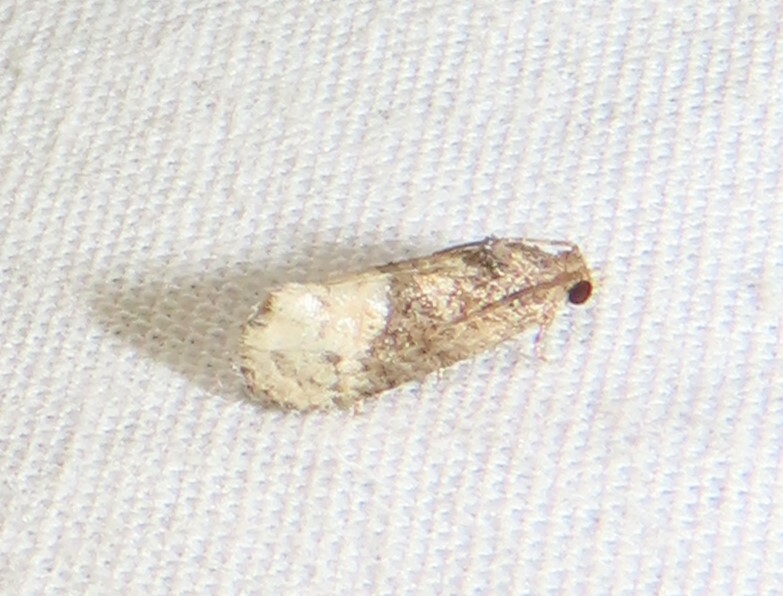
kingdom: Animalia
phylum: Arthropoda
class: Insecta
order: Lepidoptera
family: Tortricidae
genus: Ecdytolopha
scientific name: Ecdytolopha mana
